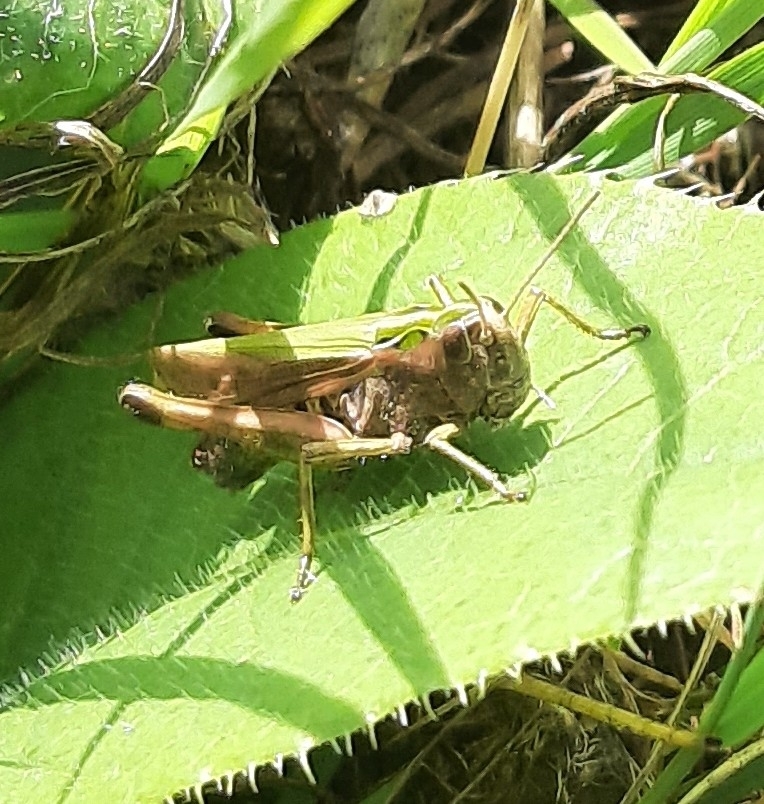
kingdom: Animalia
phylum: Arthropoda
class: Insecta
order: Orthoptera
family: Acrididae
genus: Omocestus
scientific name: Omocestus viridulus
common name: Common green grasshopper
